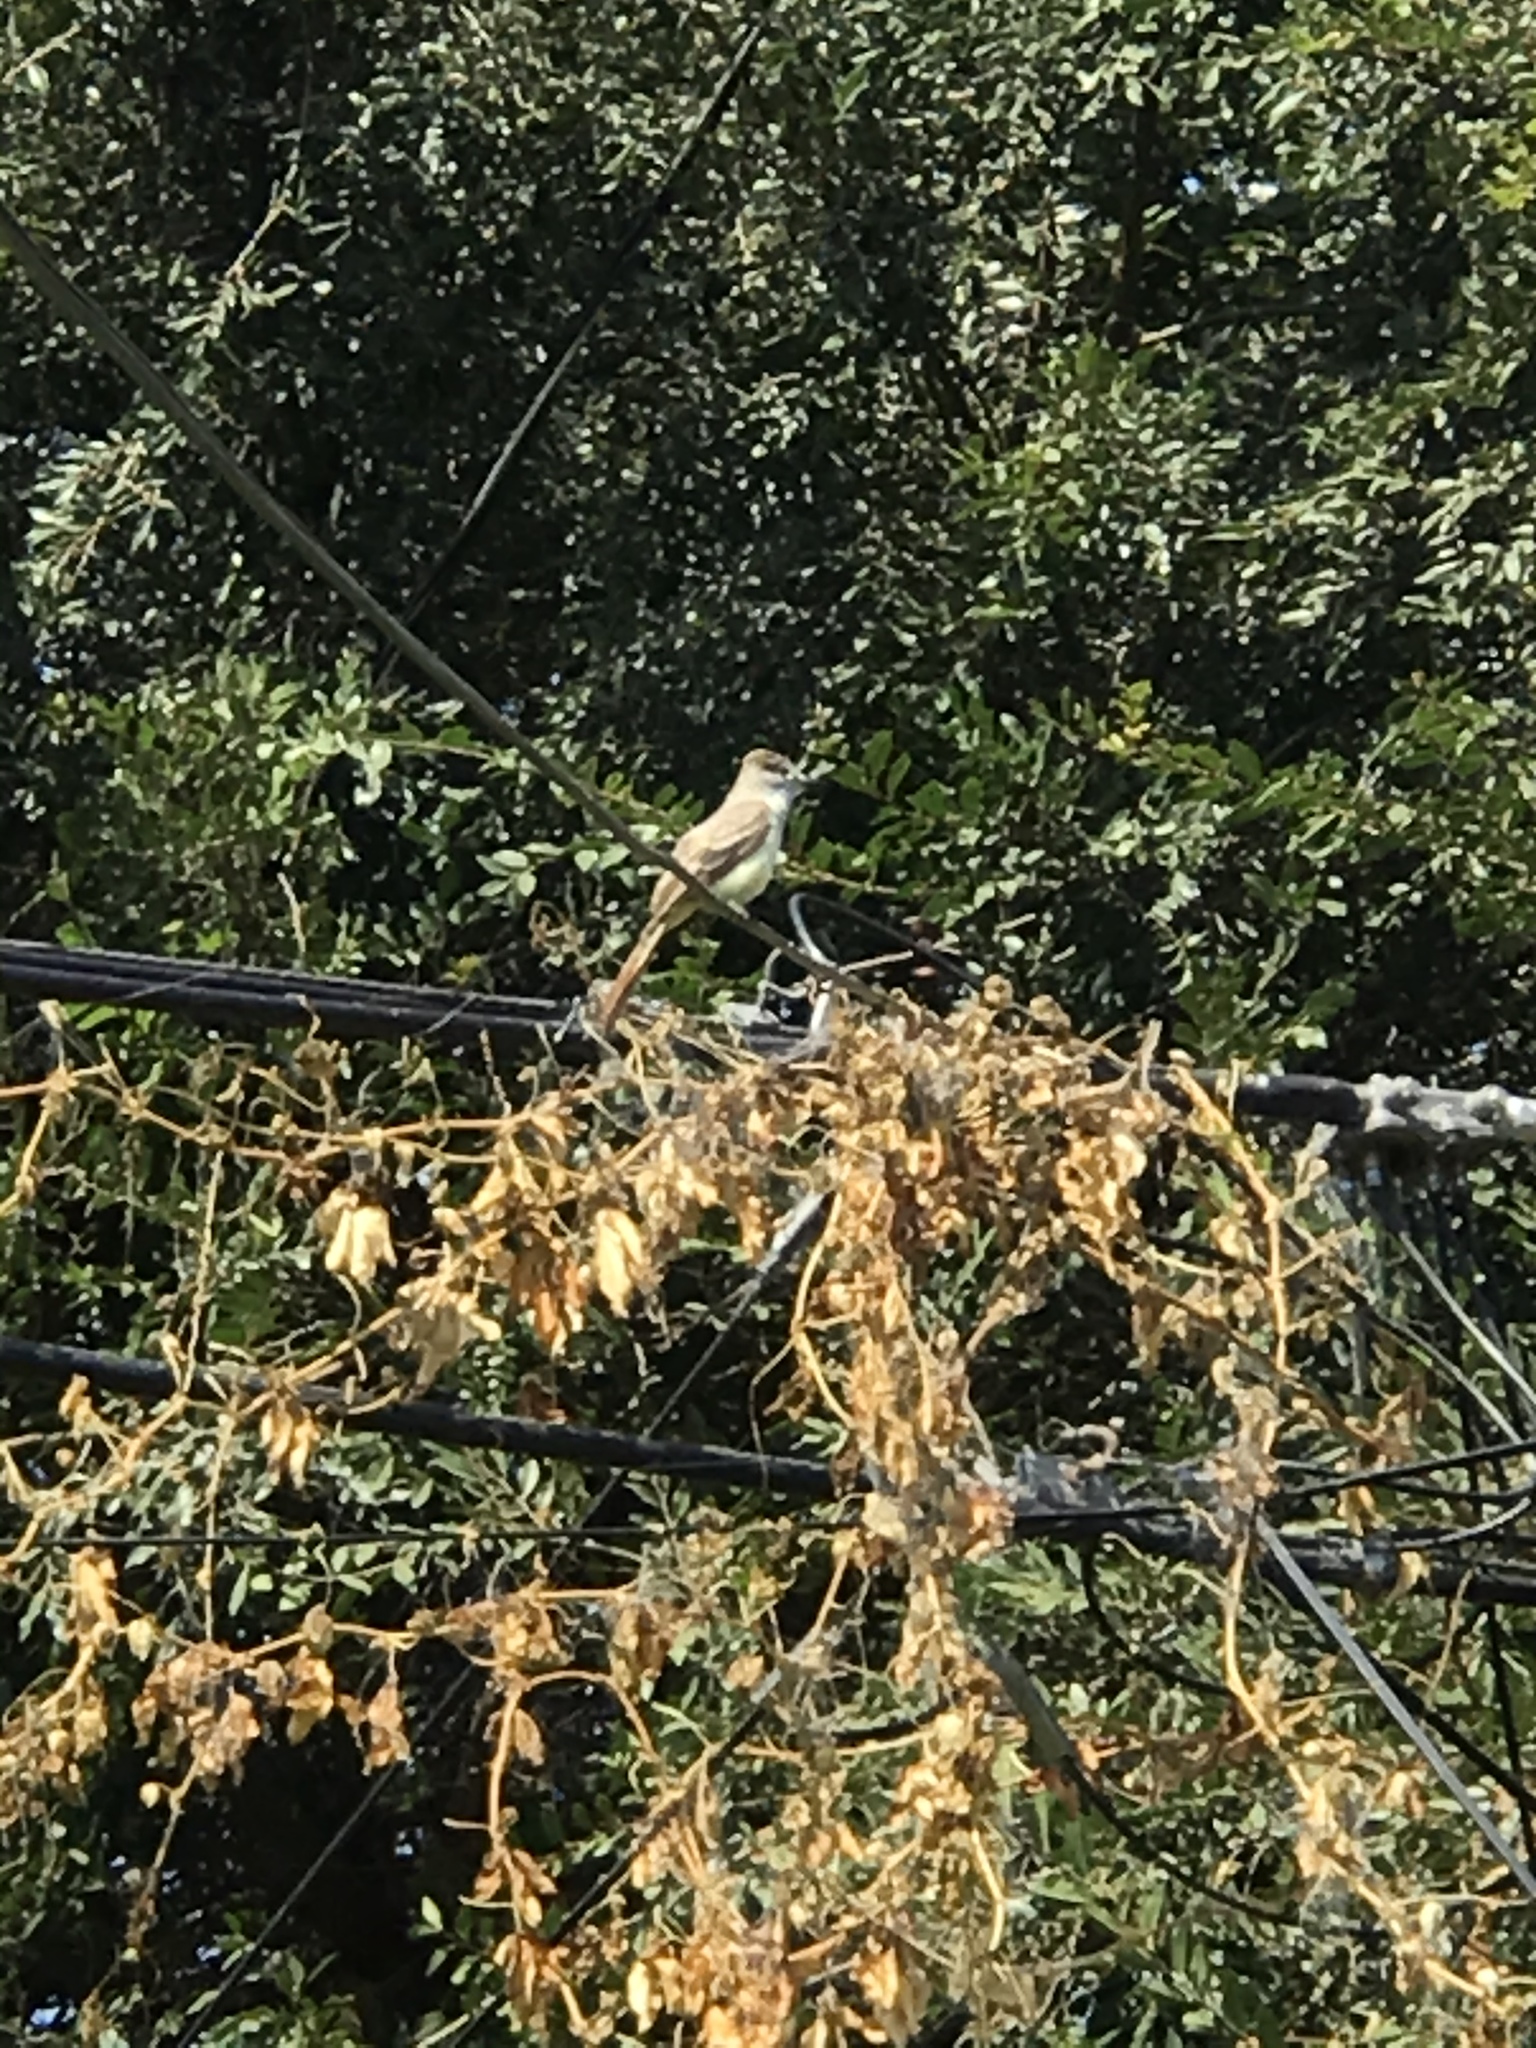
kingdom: Animalia
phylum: Chordata
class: Aves
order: Passeriformes
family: Tyrannidae
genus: Myiarchus
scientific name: Myiarchus cinerascens
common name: Ash-throated flycatcher
